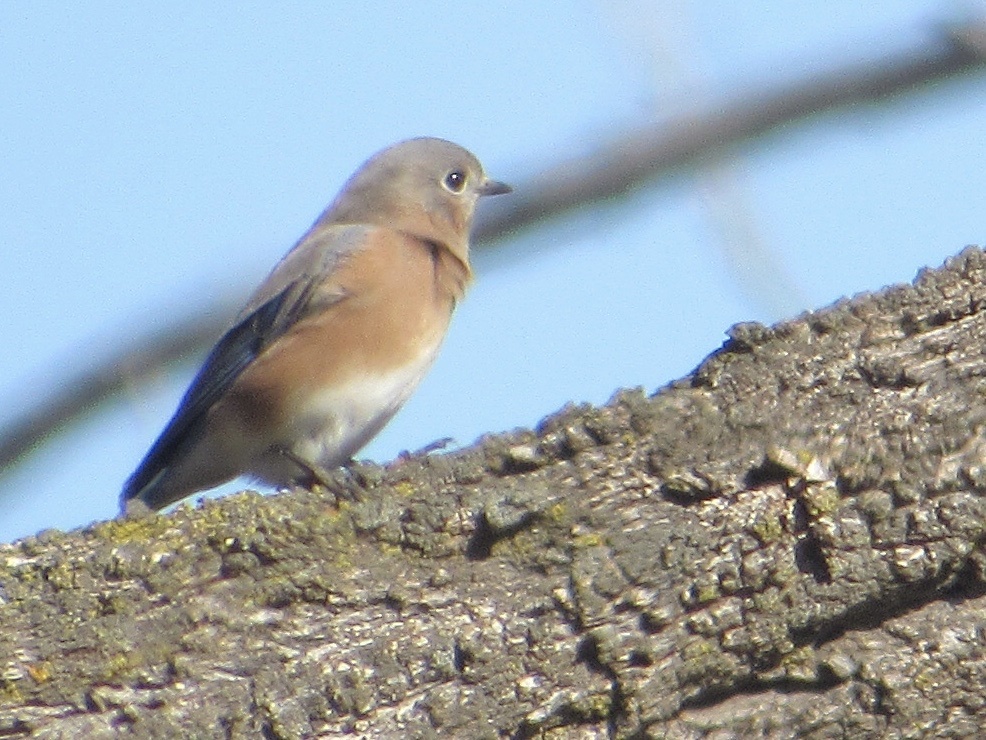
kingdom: Animalia
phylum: Chordata
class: Aves
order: Passeriformes
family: Turdidae
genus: Sialia
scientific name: Sialia sialis
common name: Eastern bluebird
